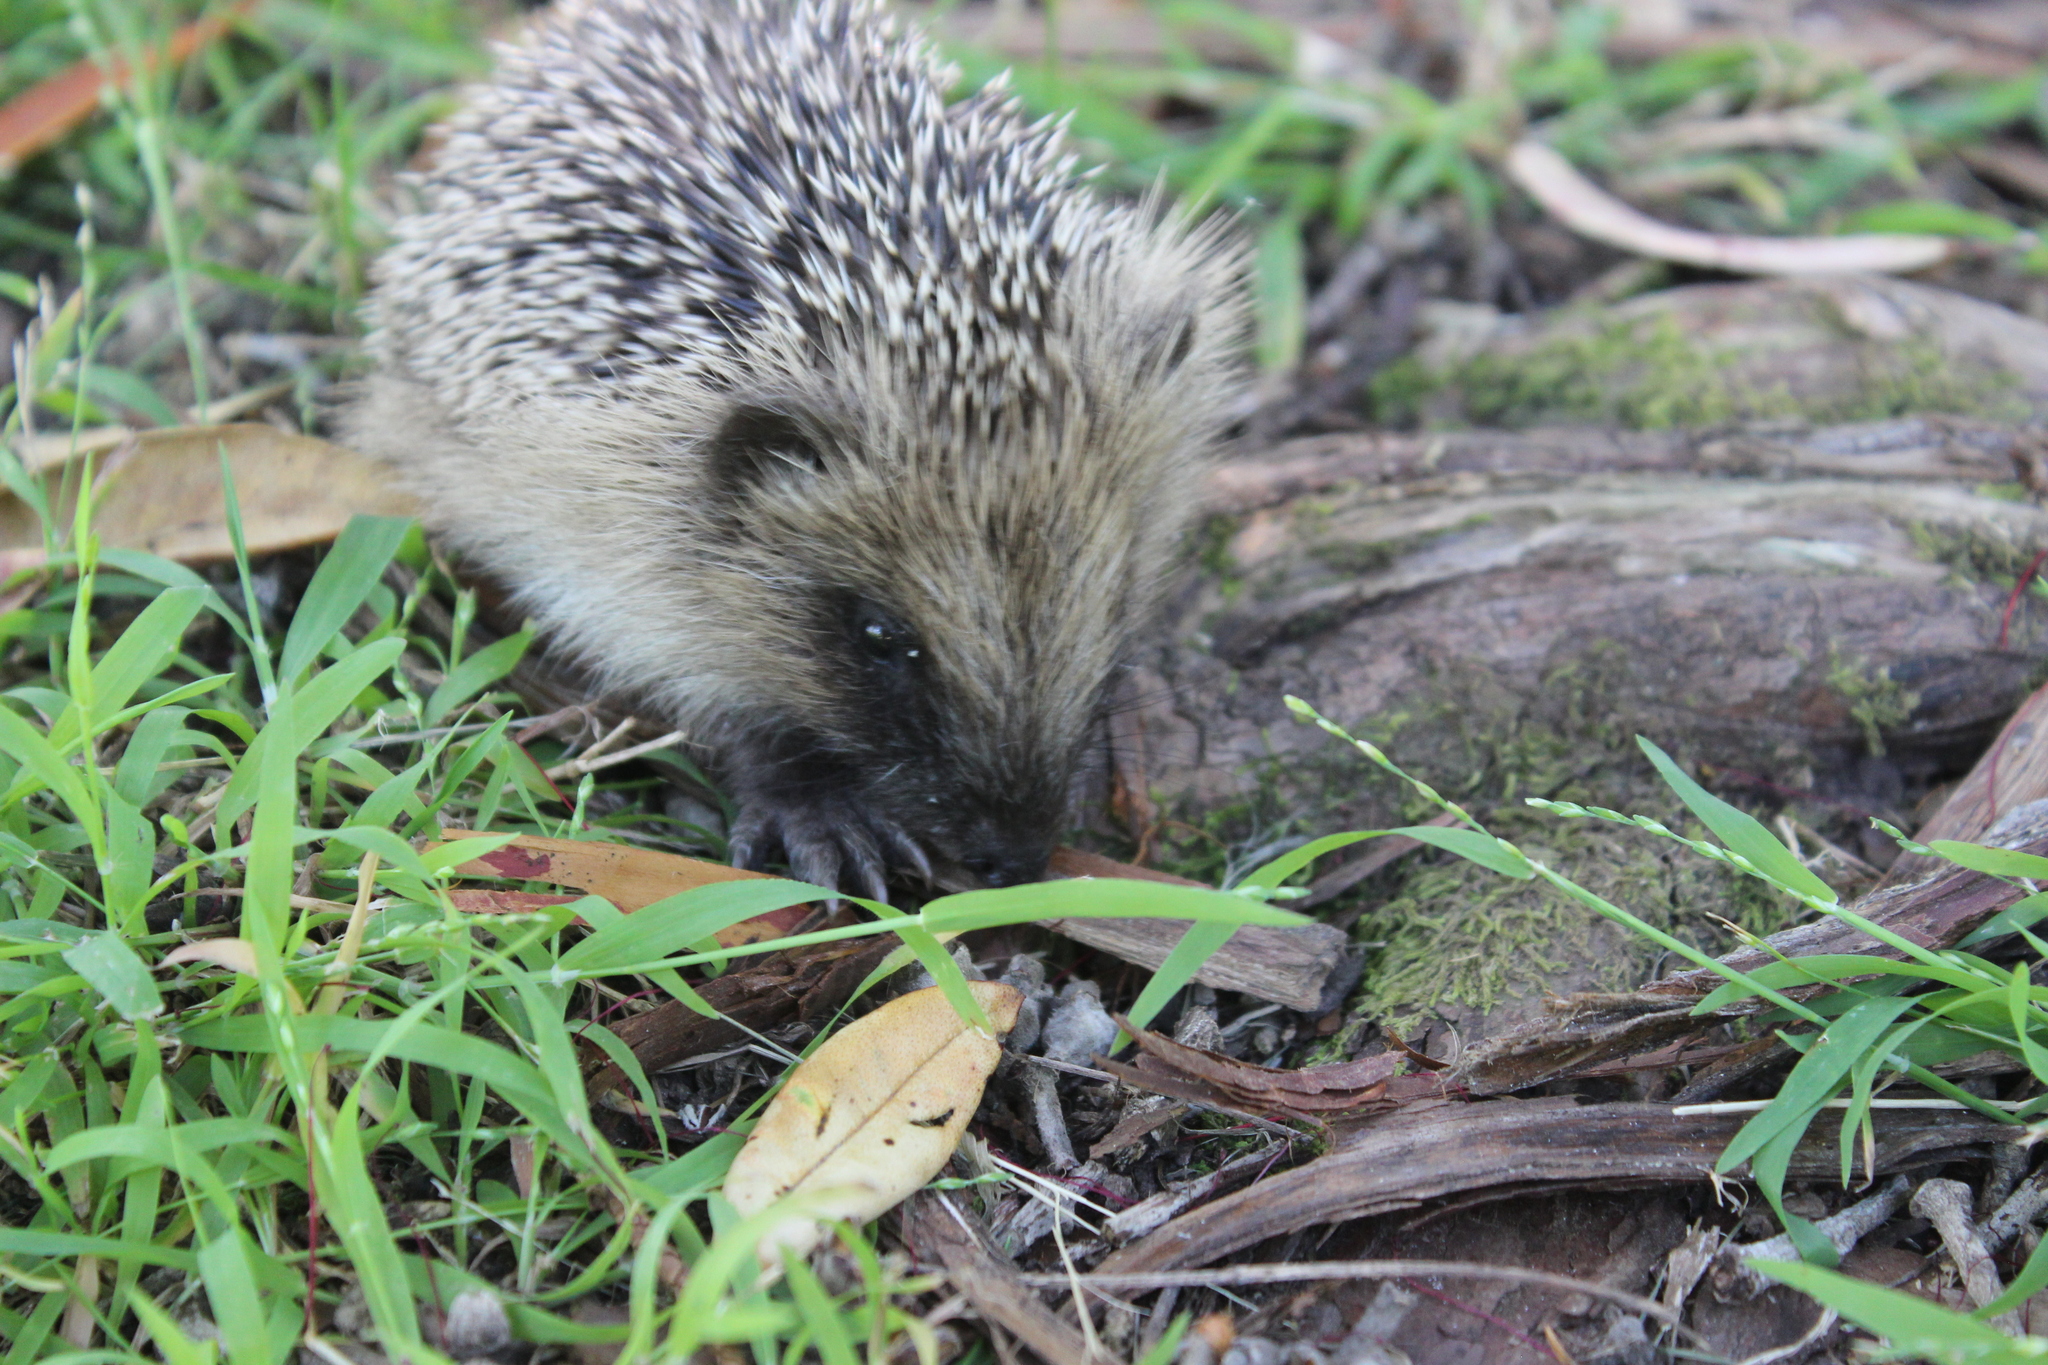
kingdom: Animalia
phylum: Chordata
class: Mammalia
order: Erinaceomorpha
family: Erinaceidae
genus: Erinaceus
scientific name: Erinaceus europaeus
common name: West european hedgehog
